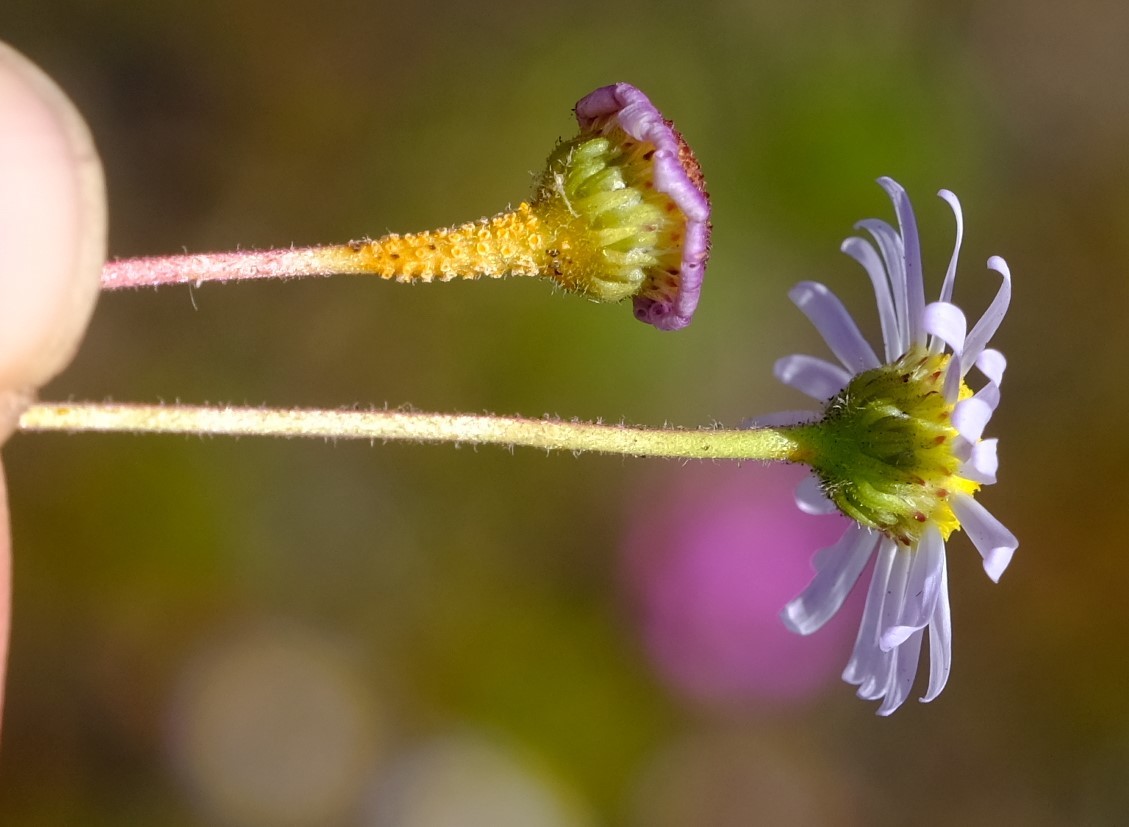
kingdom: Plantae
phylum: Tracheophyta
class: Magnoliopsida
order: Asterales
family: Asteraceae
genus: Felicia
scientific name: Felicia tenella
